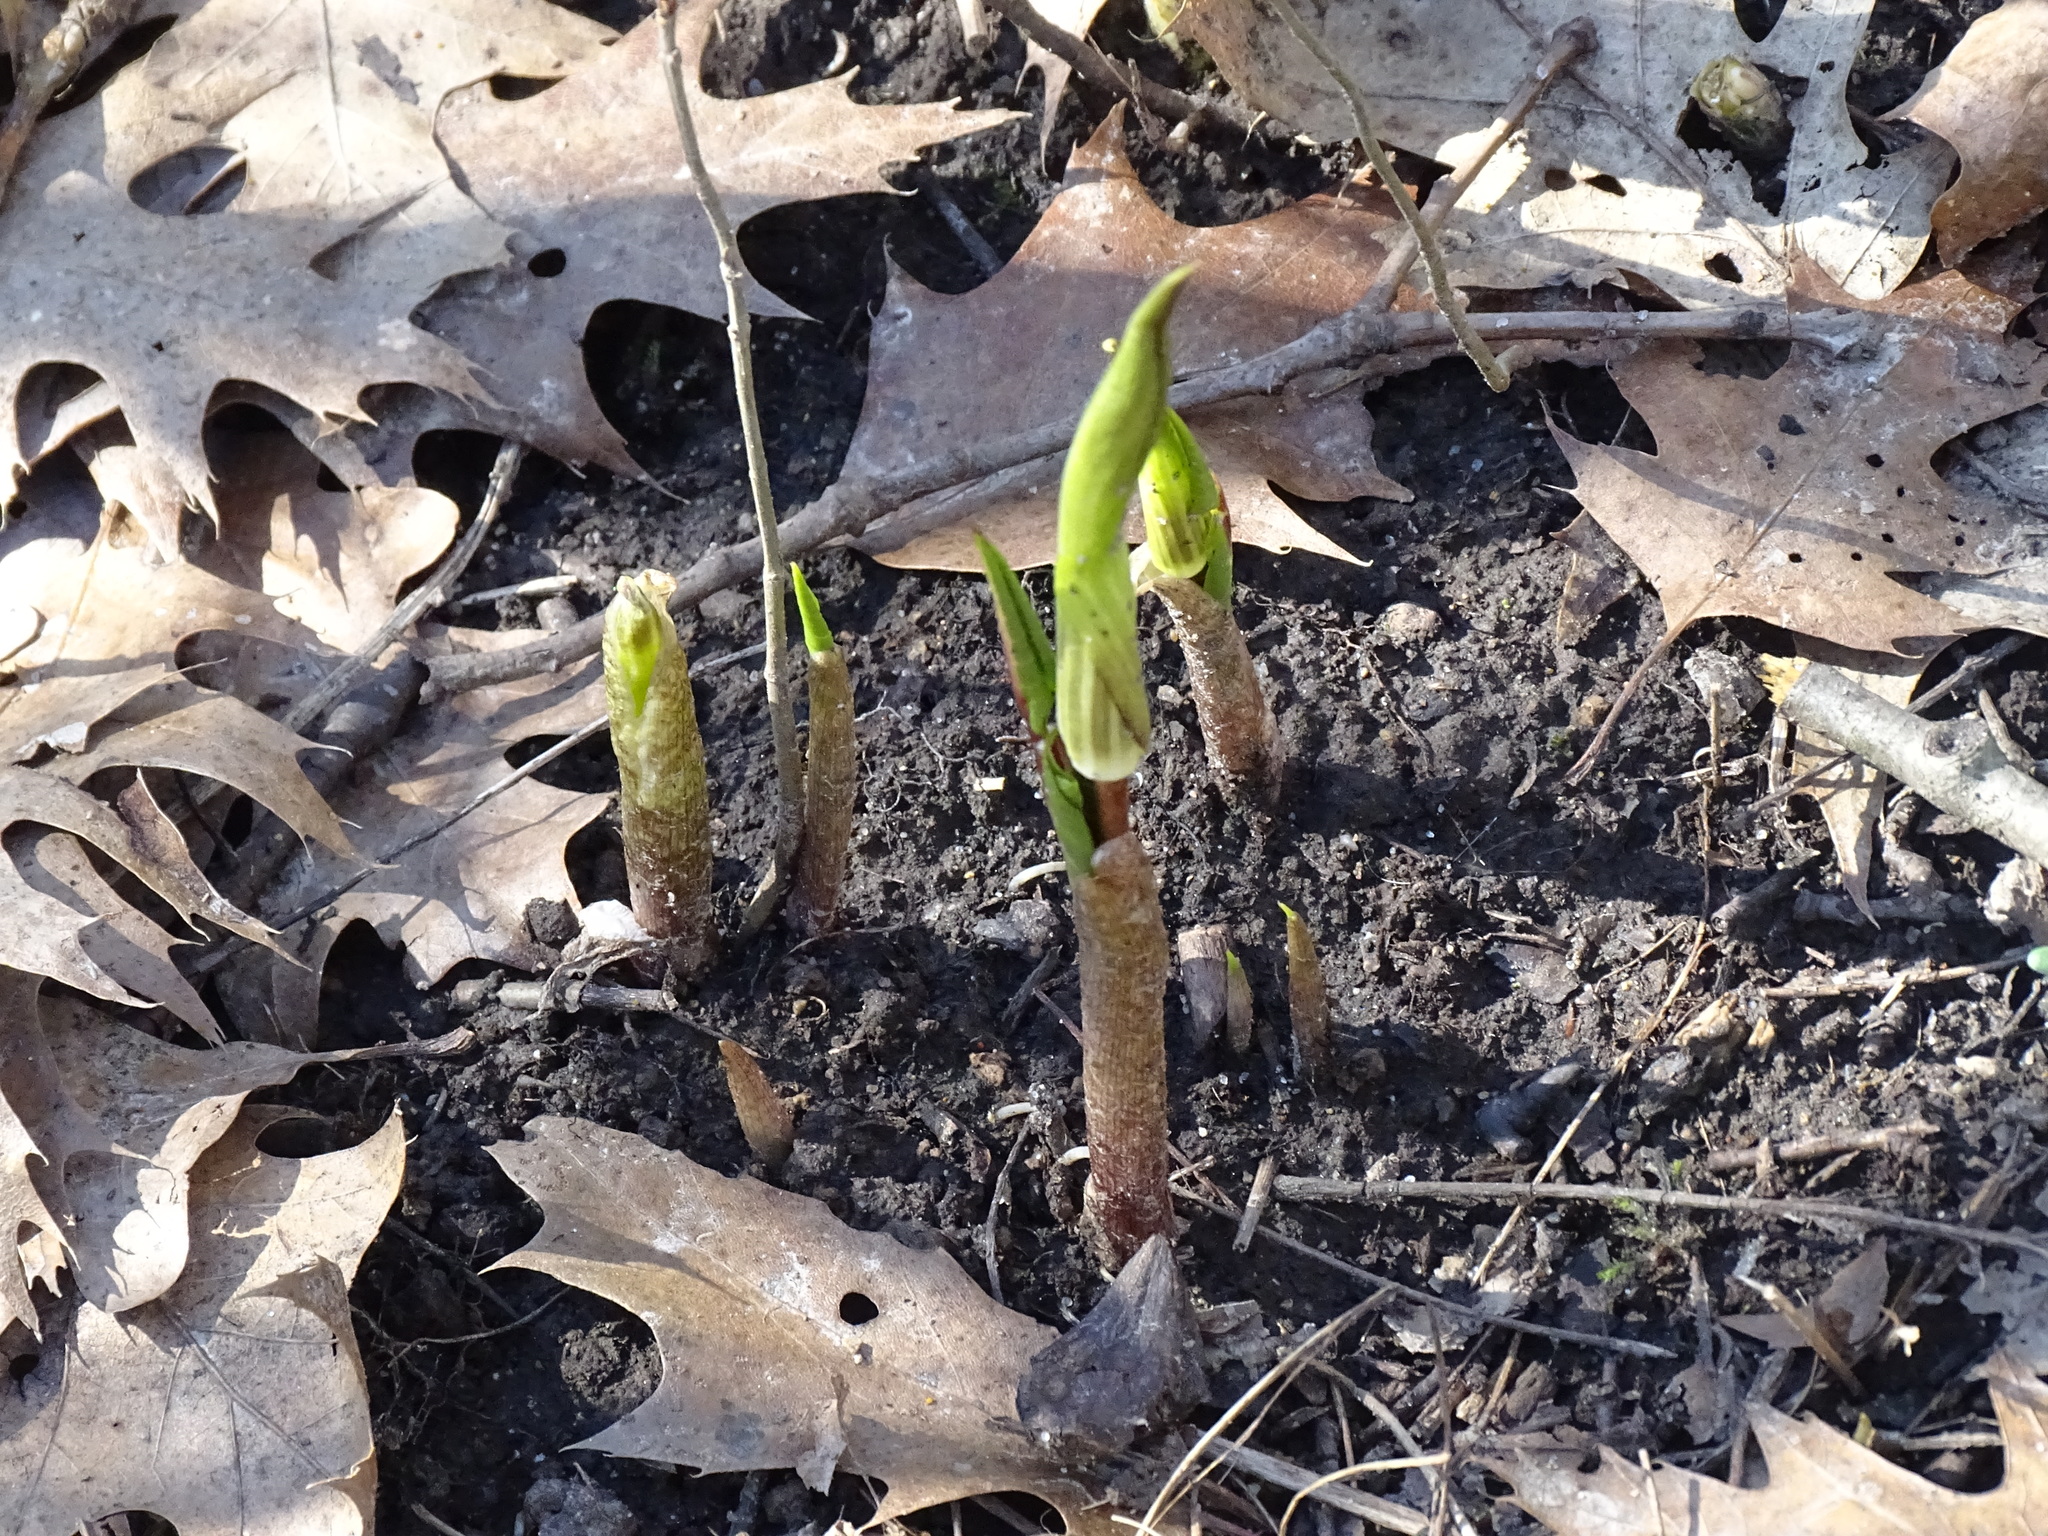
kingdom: Plantae
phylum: Tracheophyta
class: Liliopsida
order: Alismatales
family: Araceae
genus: Arisaema
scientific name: Arisaema triphyllum
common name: Jack-in-the-pulpit
